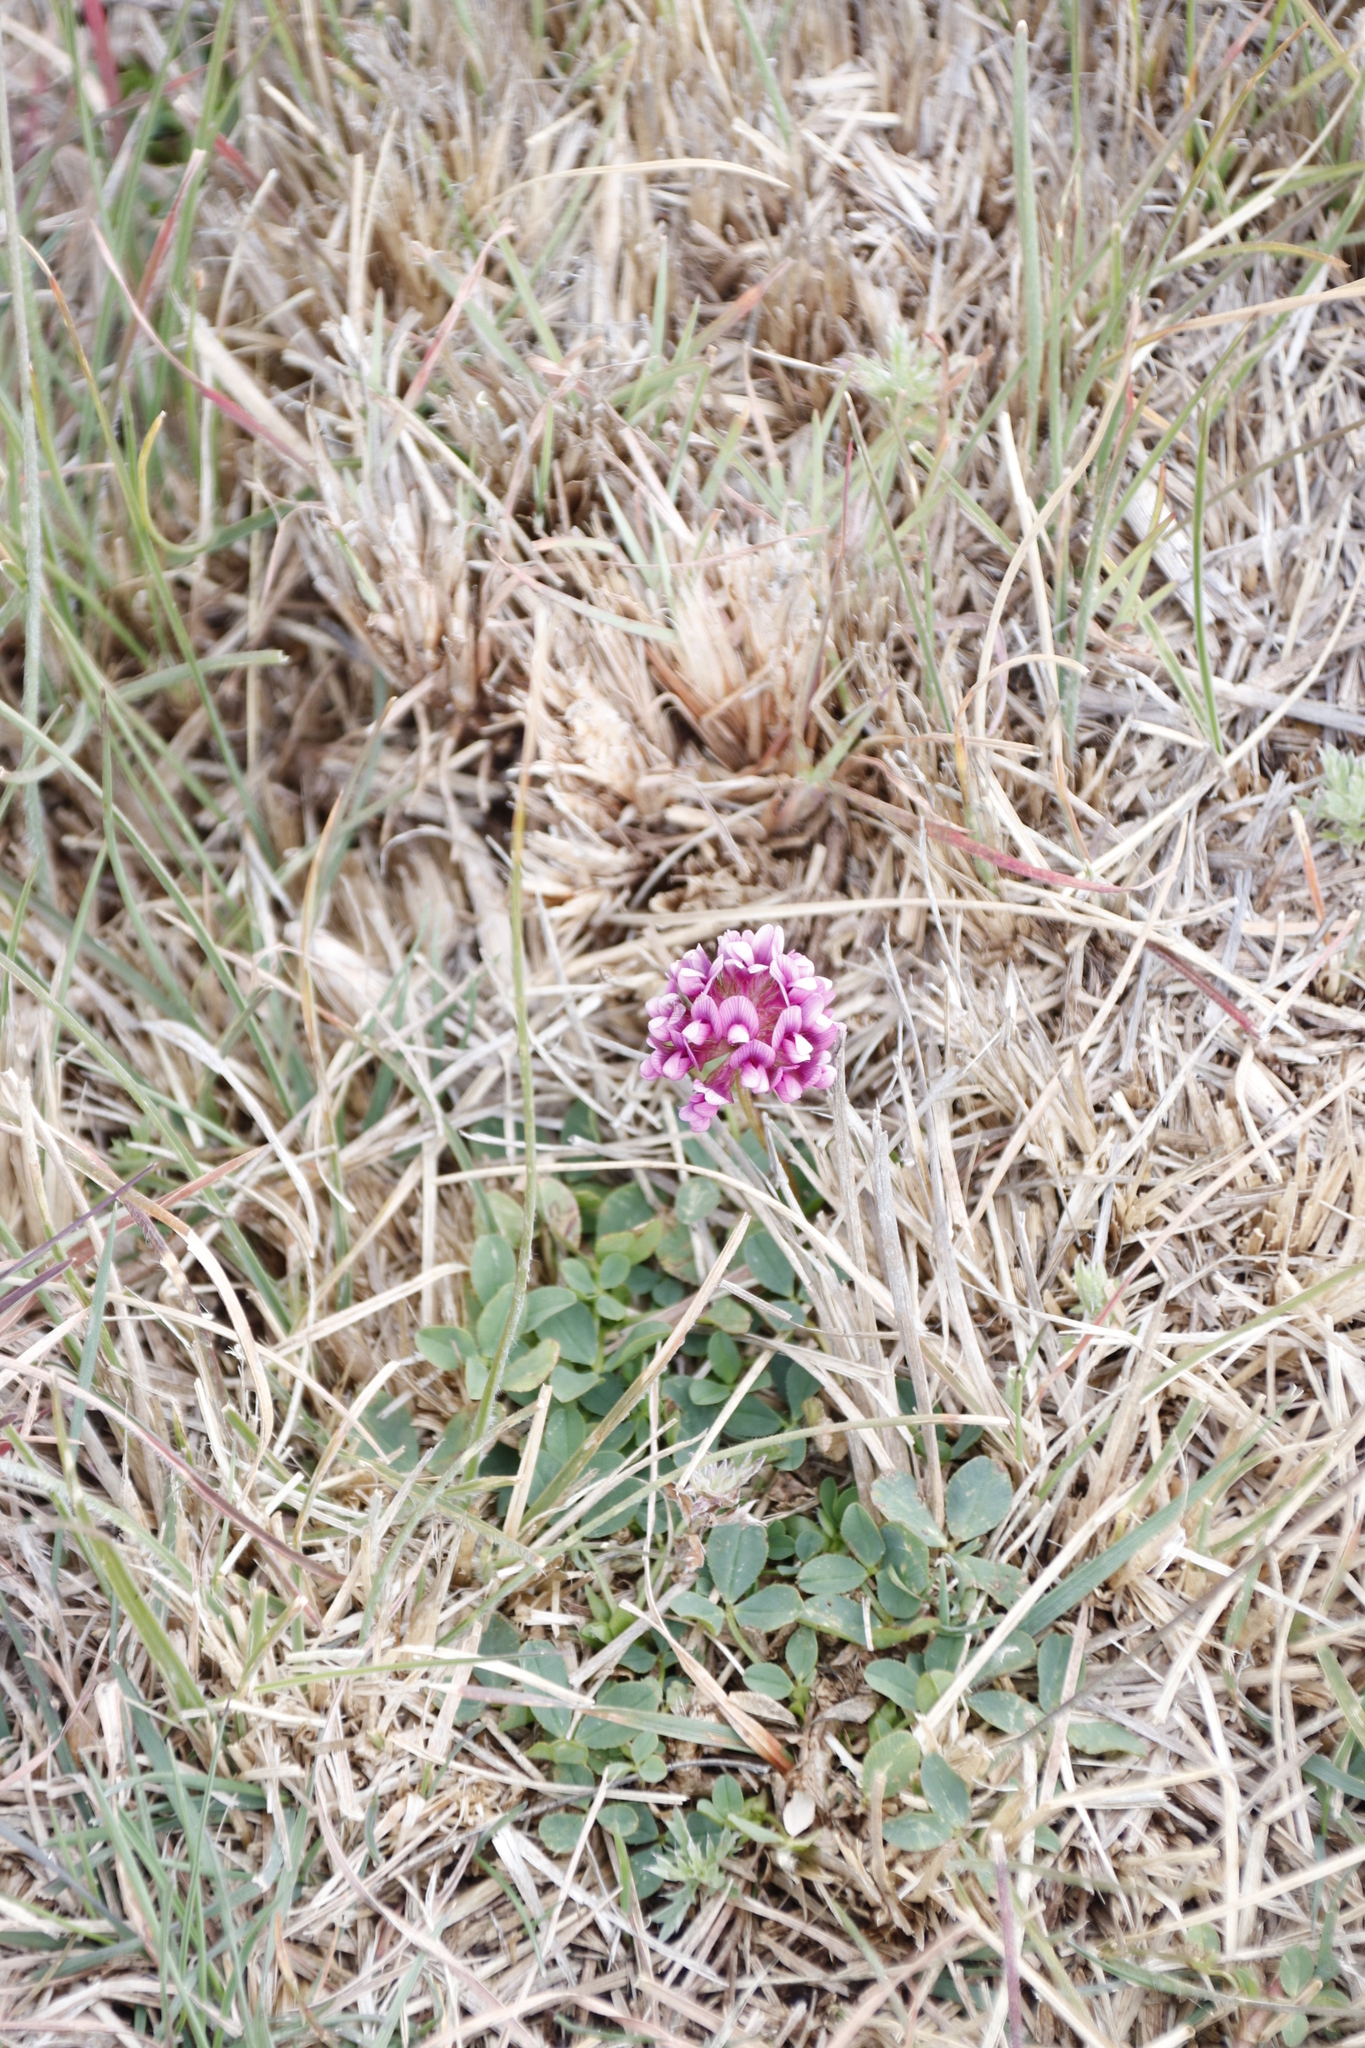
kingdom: Plantae
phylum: Tracheophyta
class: Magnoliopsida
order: Fabales
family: Fabaceae
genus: Trifolium
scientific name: Trifolium burchellianum
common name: Burchell's clover
